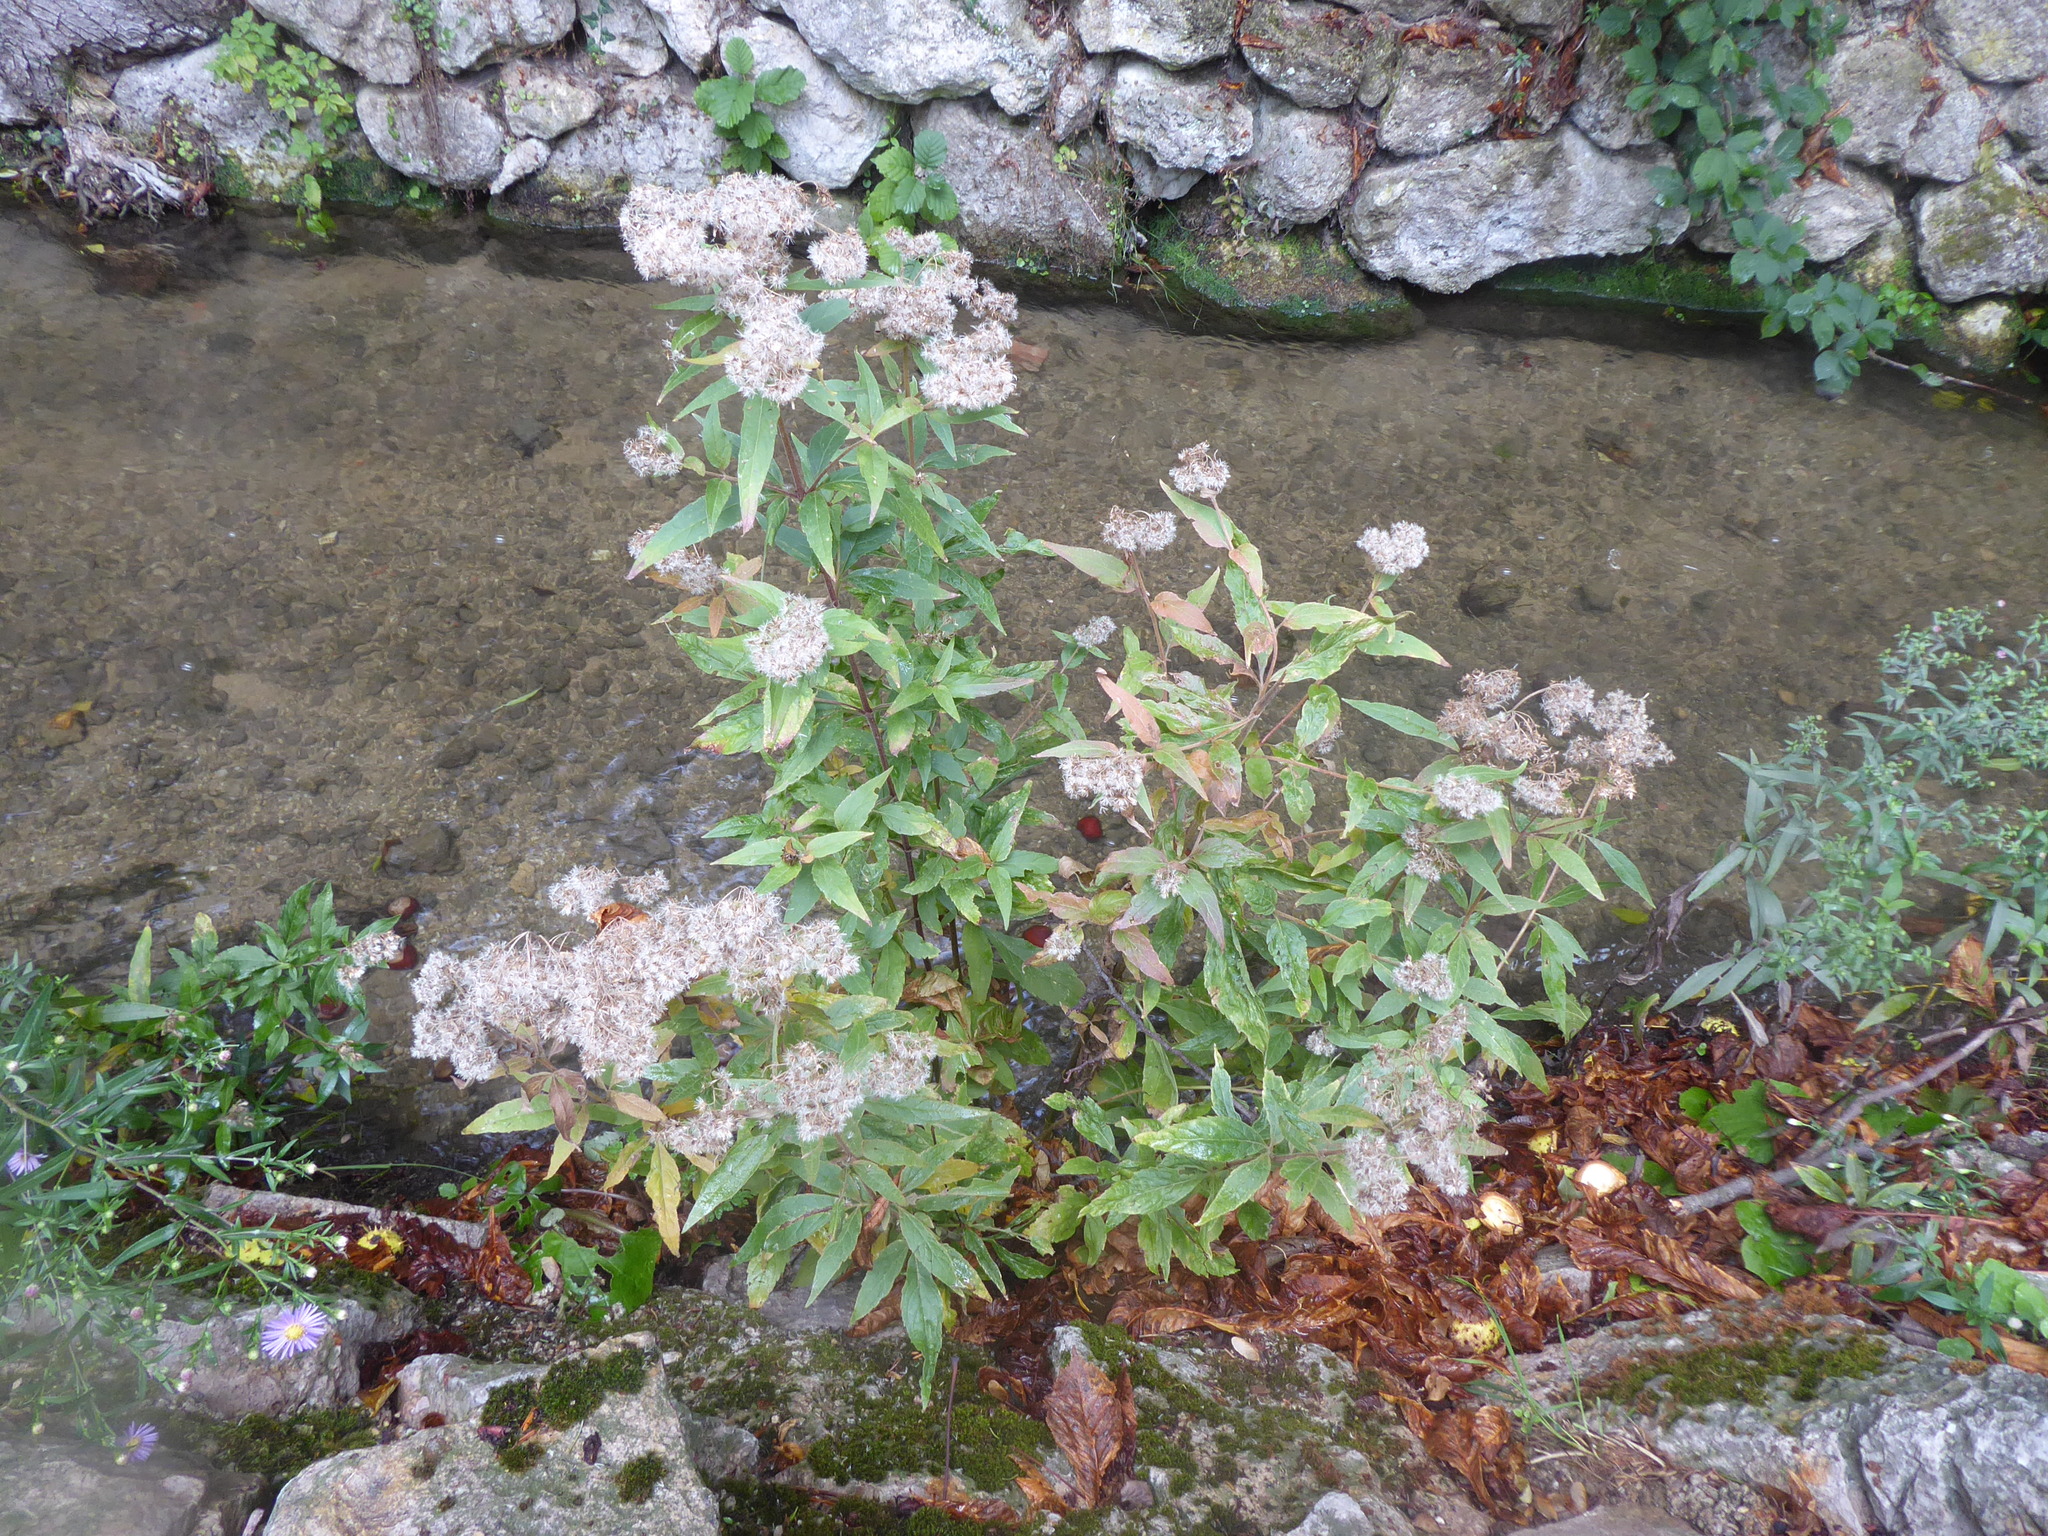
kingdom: Plantae
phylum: Tracheophyta
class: Magnoliopsida
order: Asterales
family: Asteraceae
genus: Eupatorium
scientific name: Eupatorium cannabinum
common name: Hemp-agrimony
